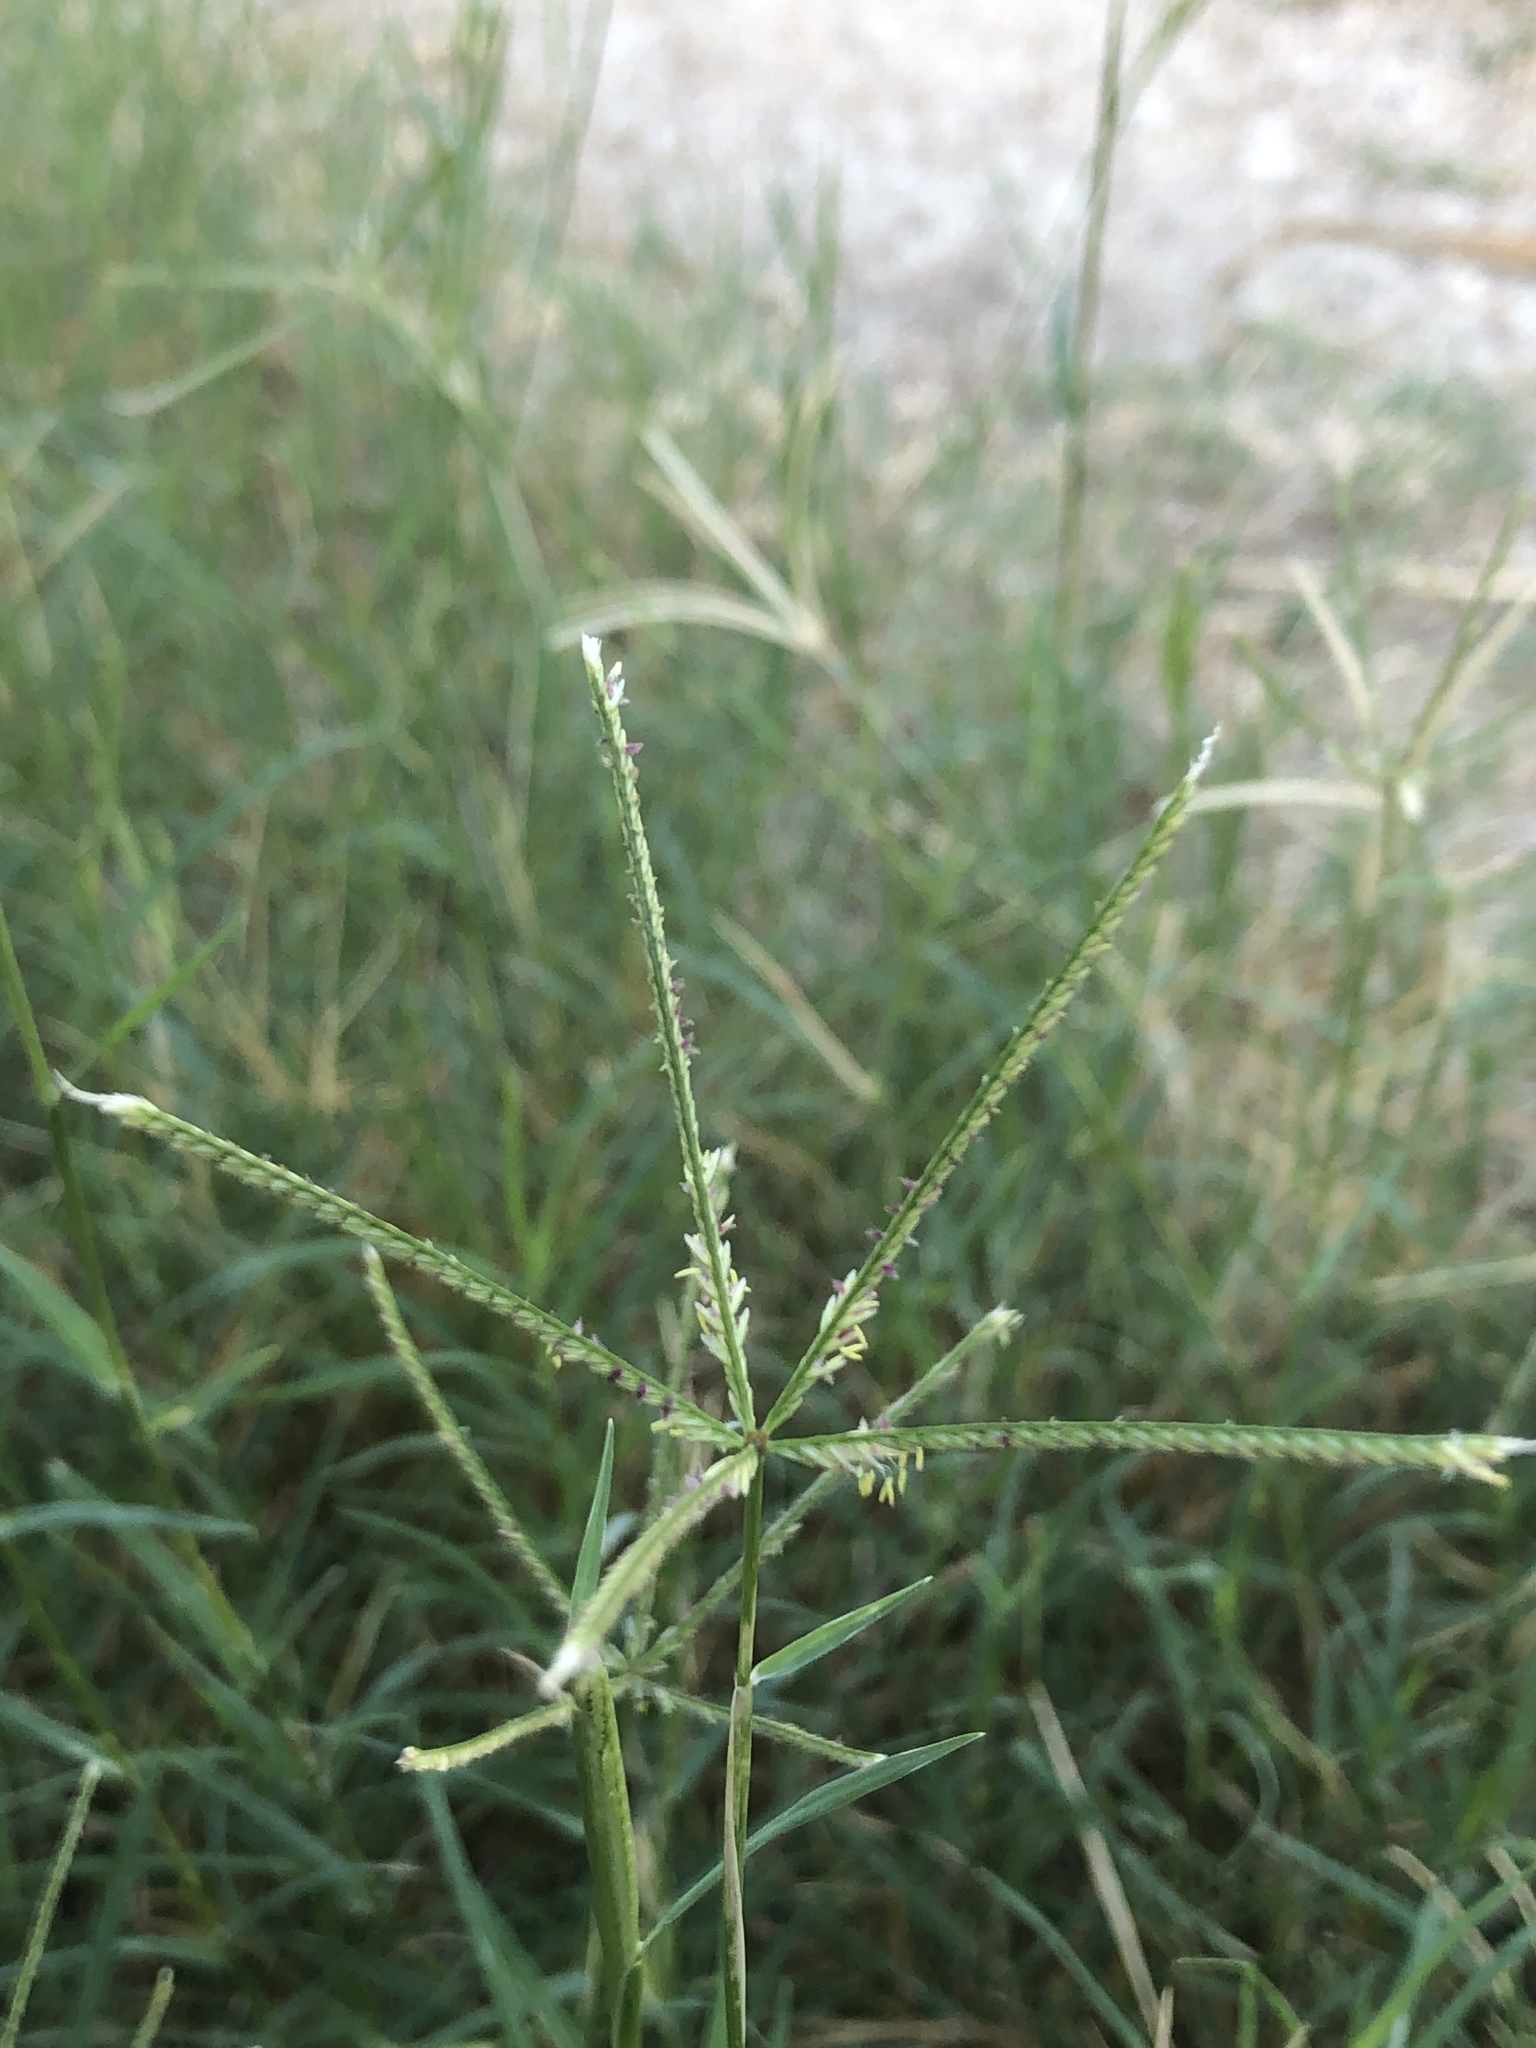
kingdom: Plantae
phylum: Tracheophyta
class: Liliopsida
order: Poales
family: Poaceae
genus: Cynodon
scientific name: Cynodon dactylon
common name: Bermuda grass
